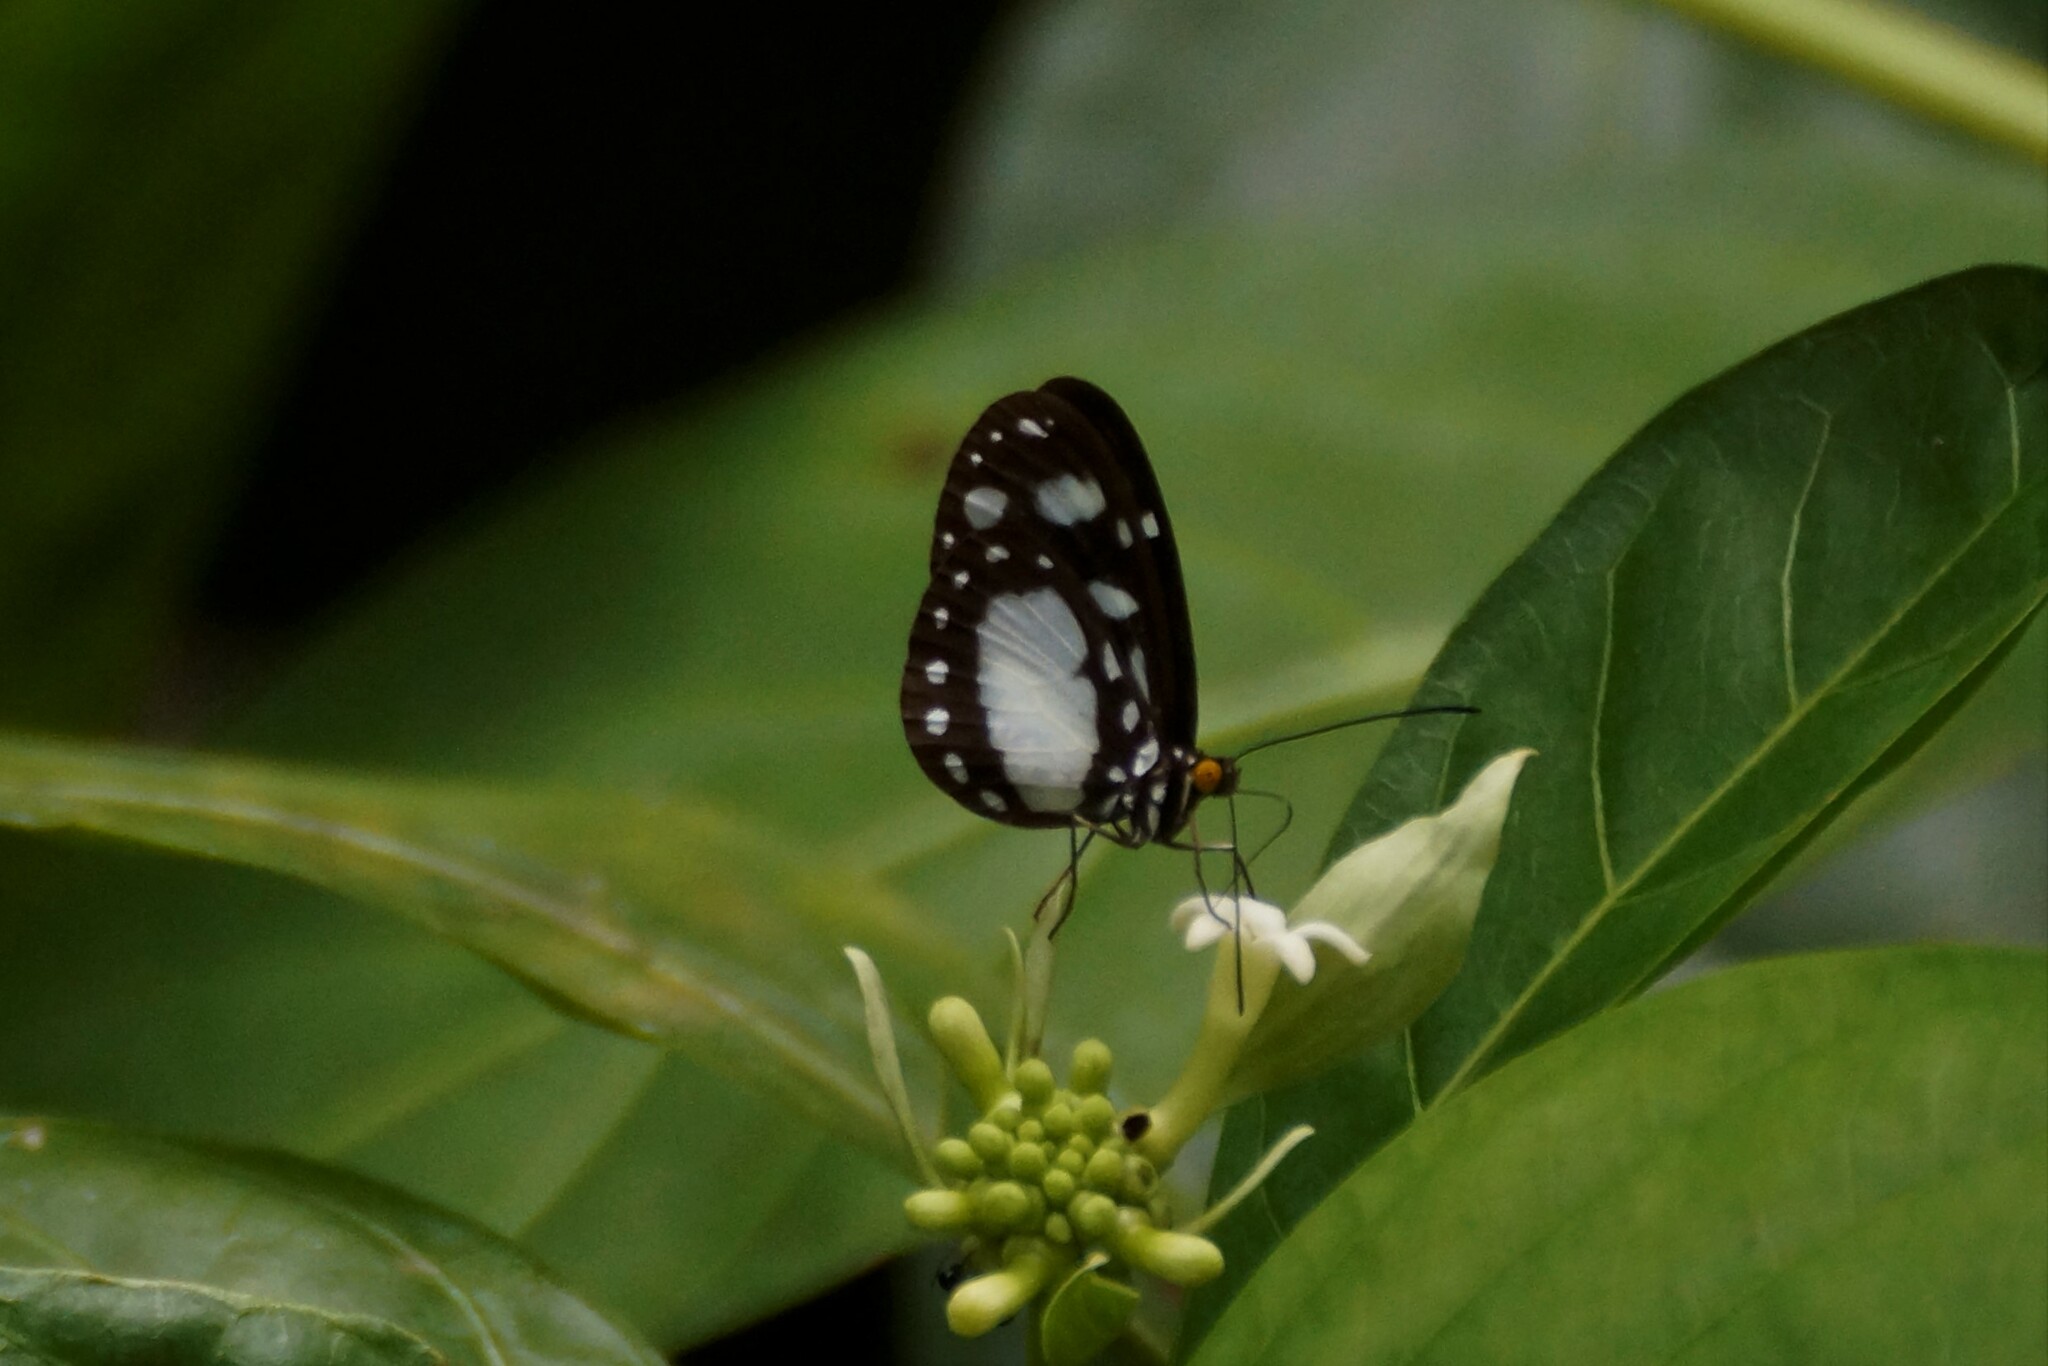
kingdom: Animalia
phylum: Arthropoda
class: Insecta
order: Lepidoptera
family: Nymphalidae
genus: Tellervo
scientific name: Tellervo zoilus
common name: Hamadryad
